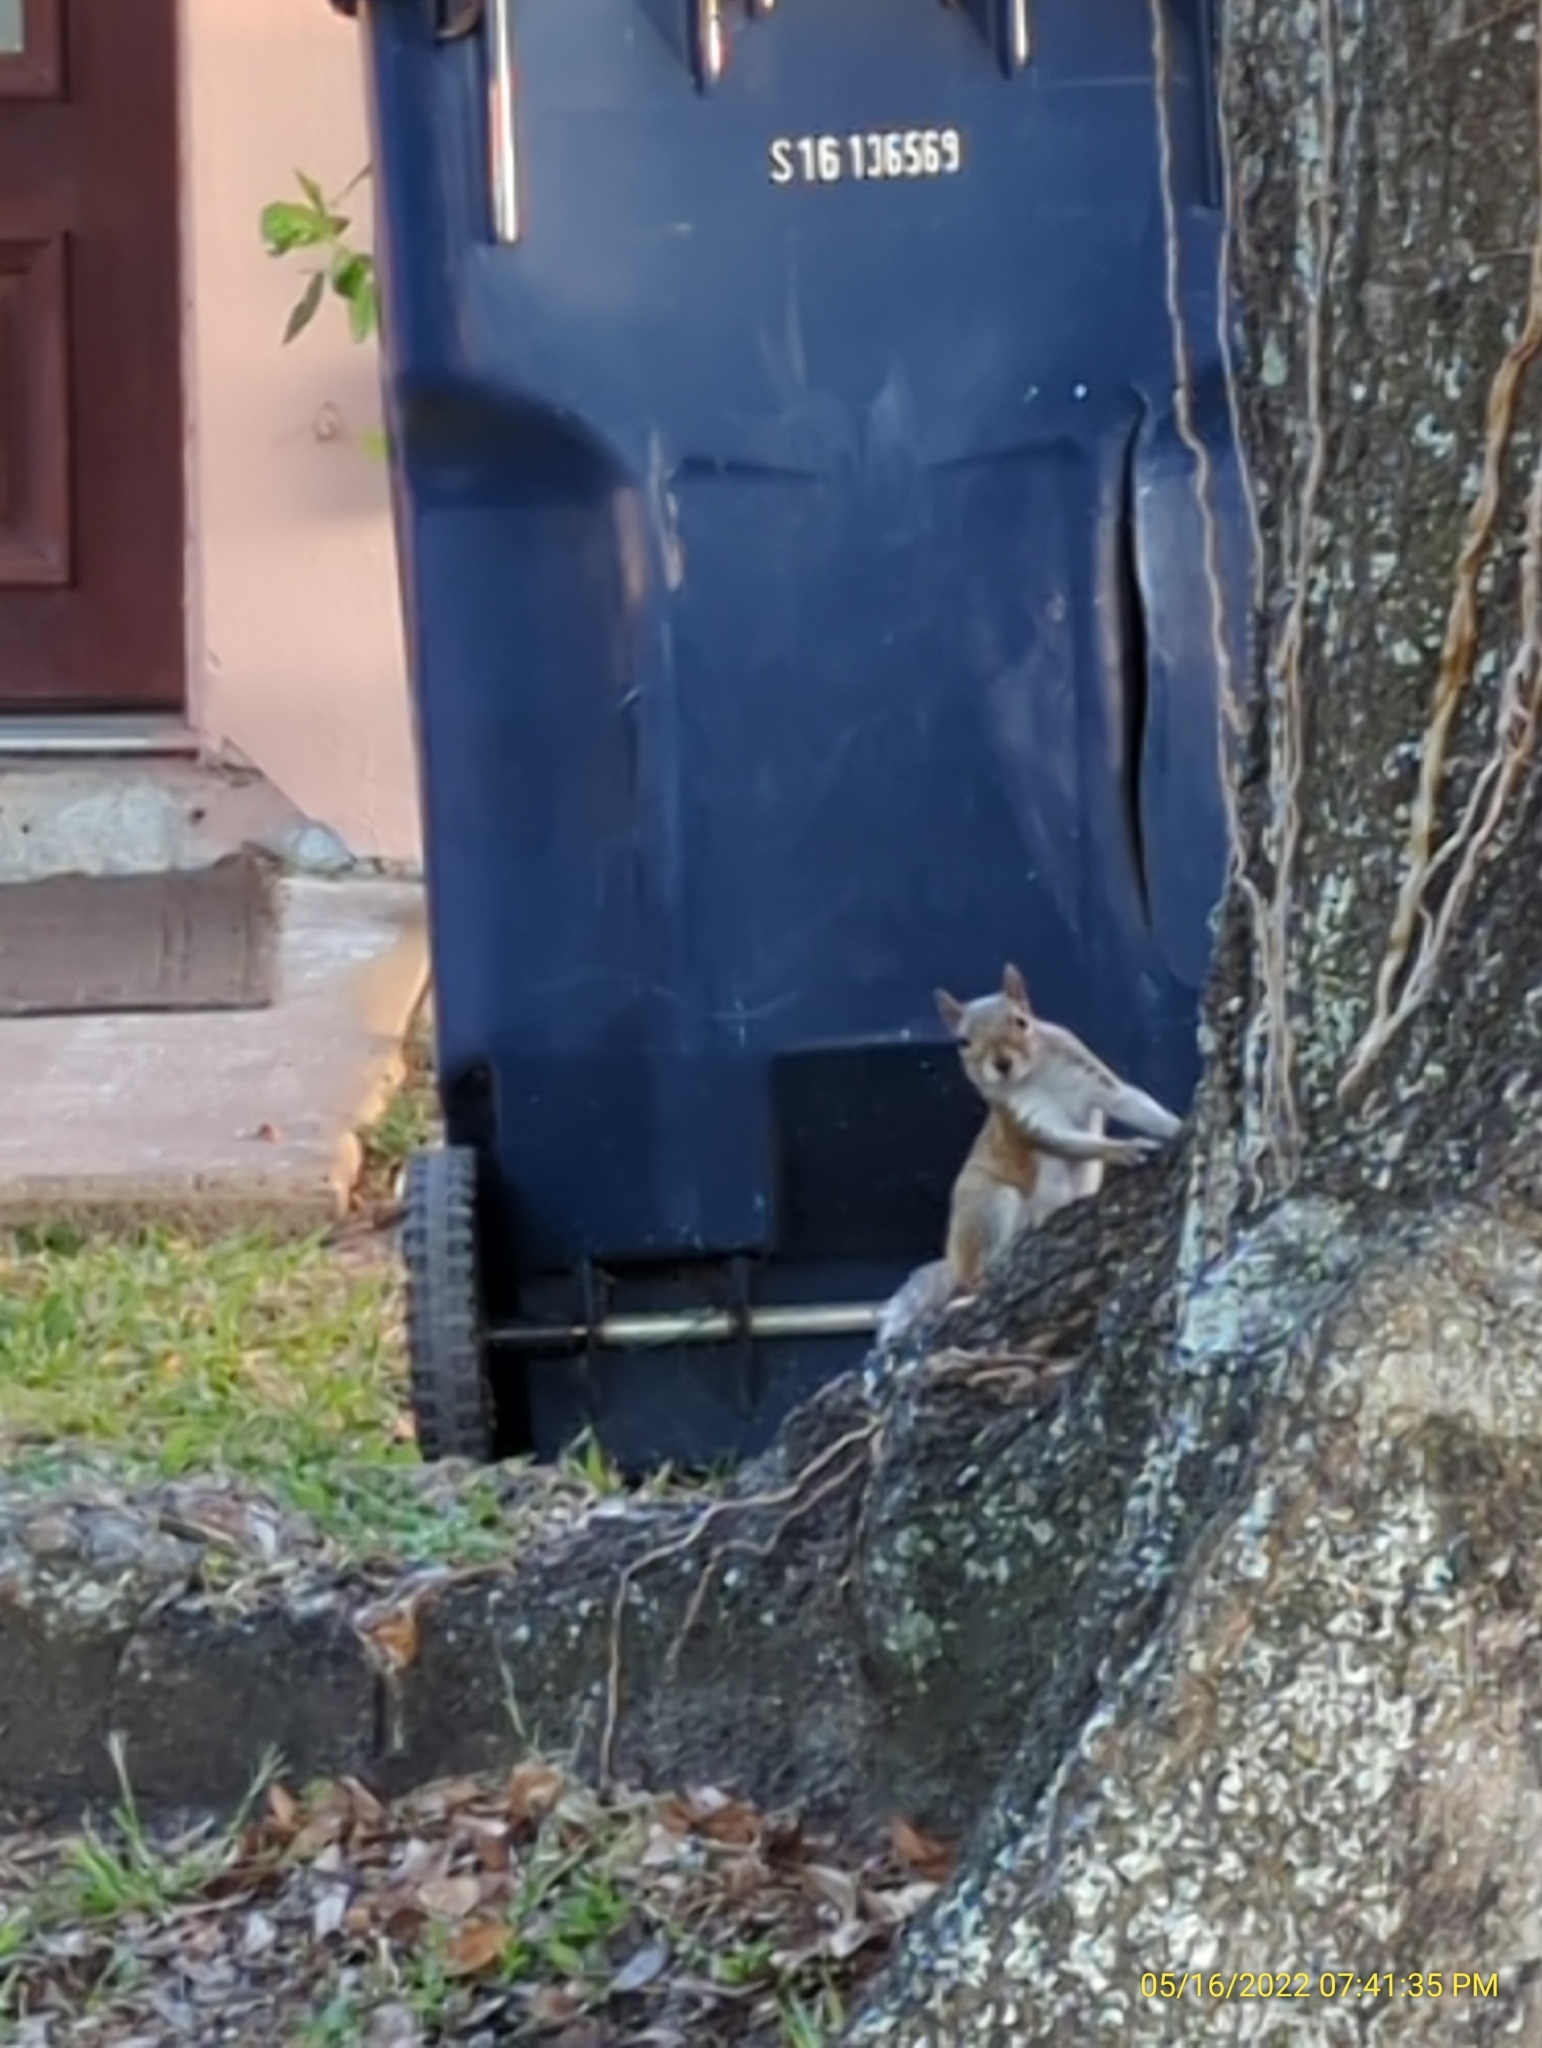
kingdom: Animalia
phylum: Chordata
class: Mammalia
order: Rodentia
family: Sciuridae
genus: Sciurus
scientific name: Sciurus carolinensis
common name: Eastern gray squirrel
